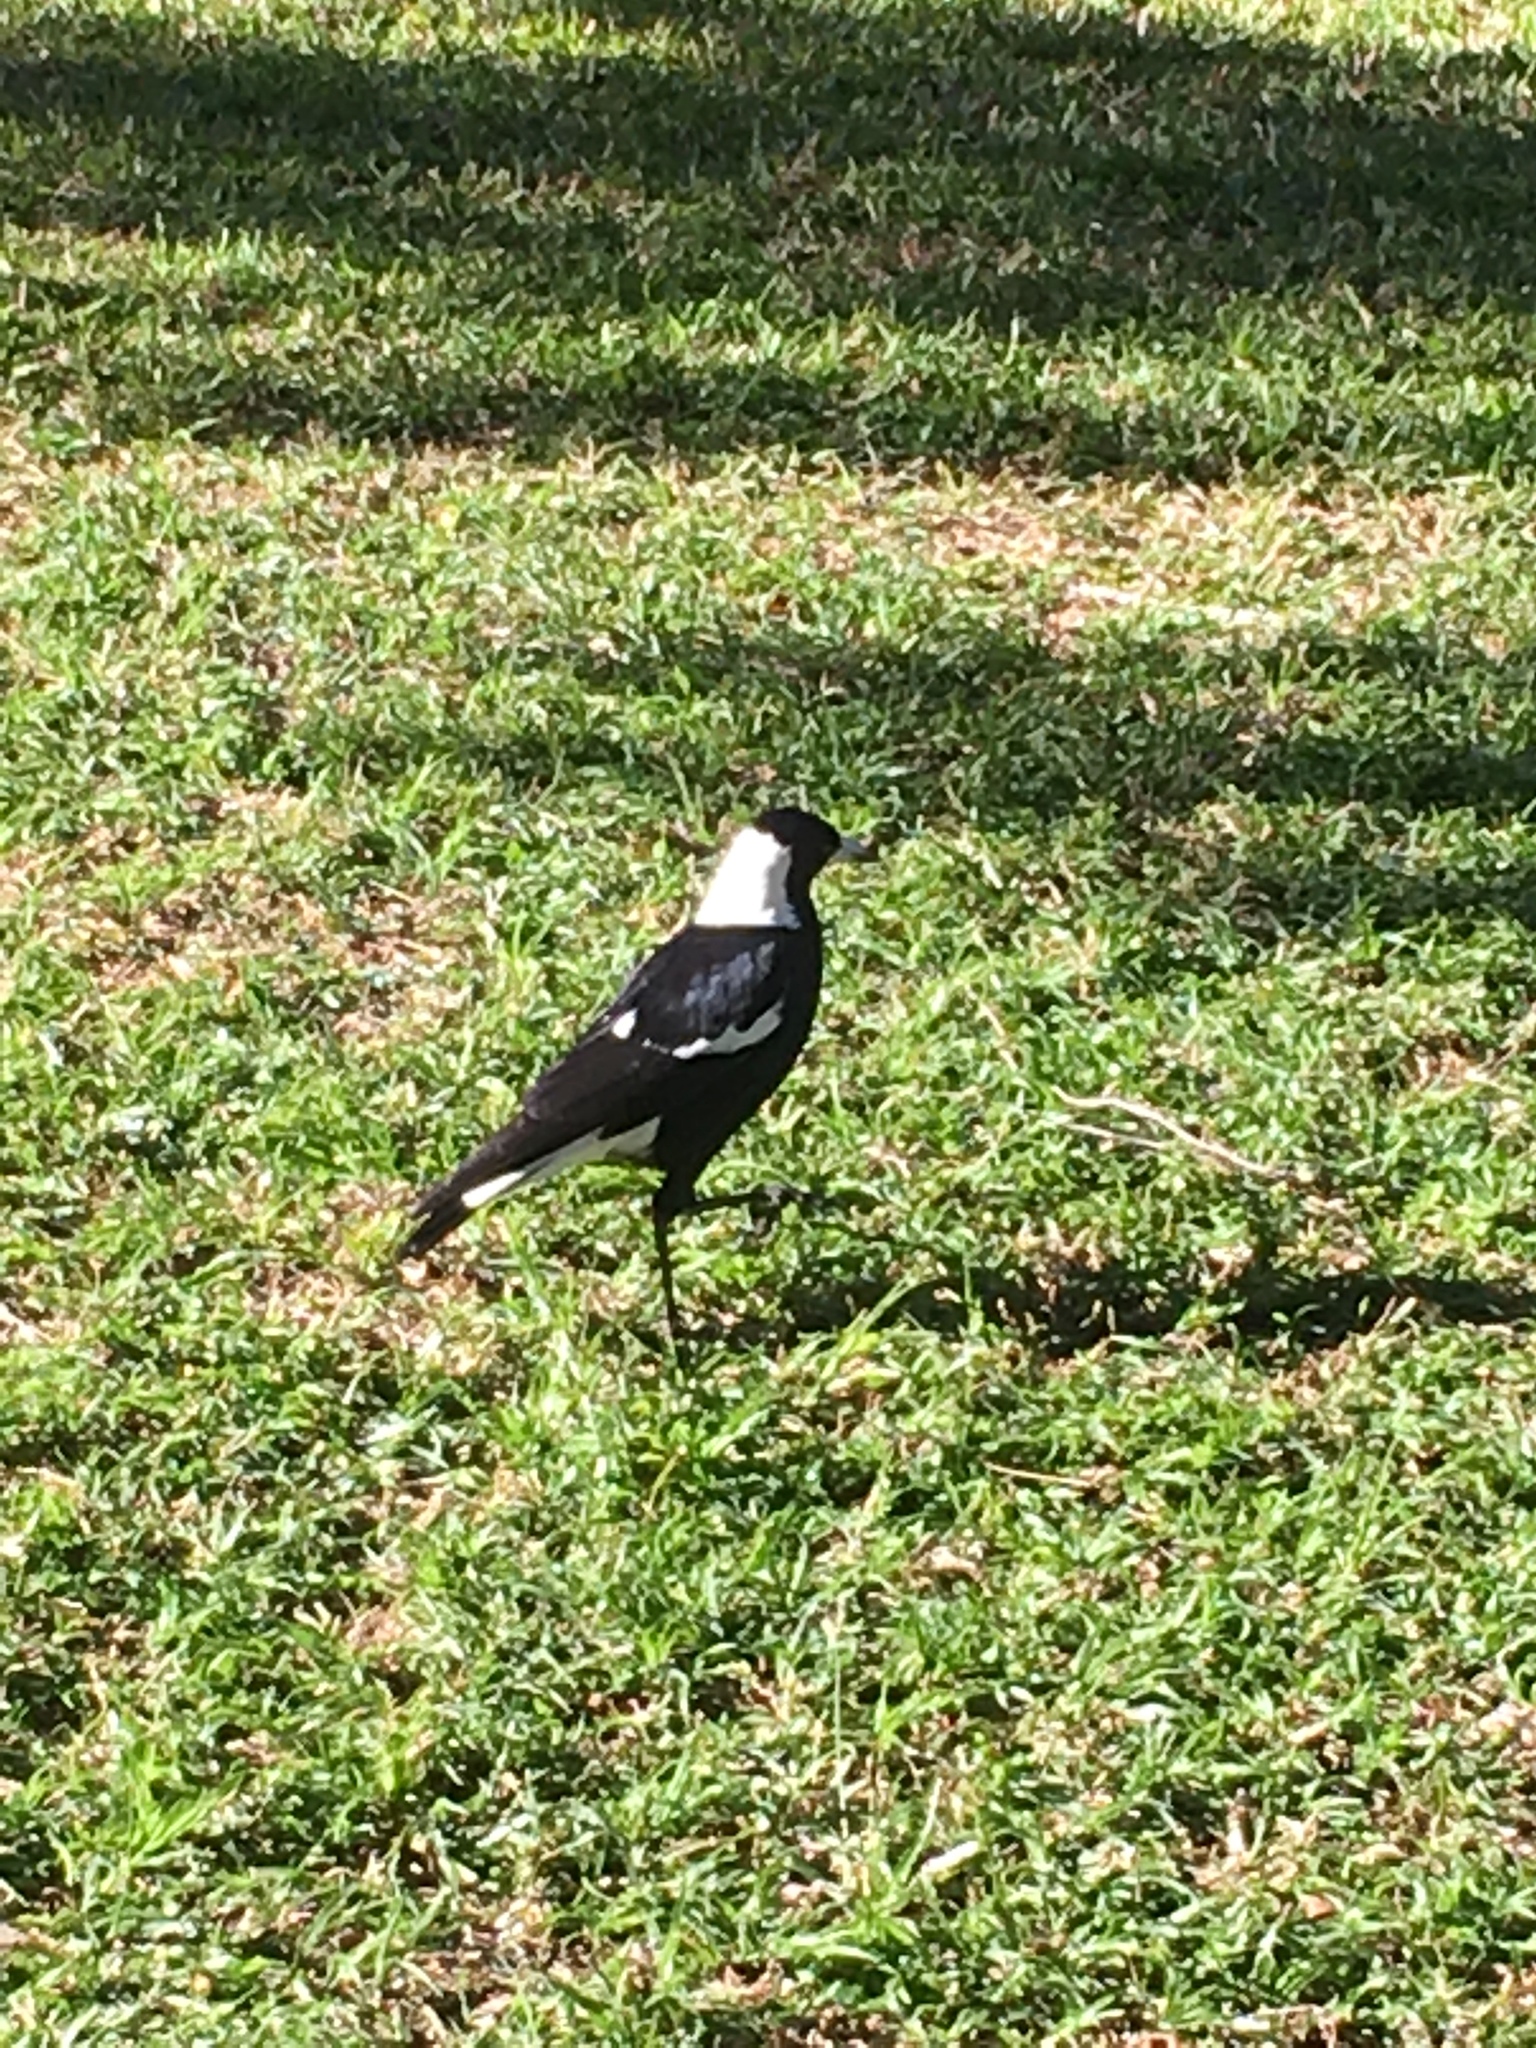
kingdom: Animalia
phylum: Chordata
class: Aves
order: Passeriformes
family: Cracticidae
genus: Gymnorhina
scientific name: Gymnorhina tibicen
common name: Australian magpie
